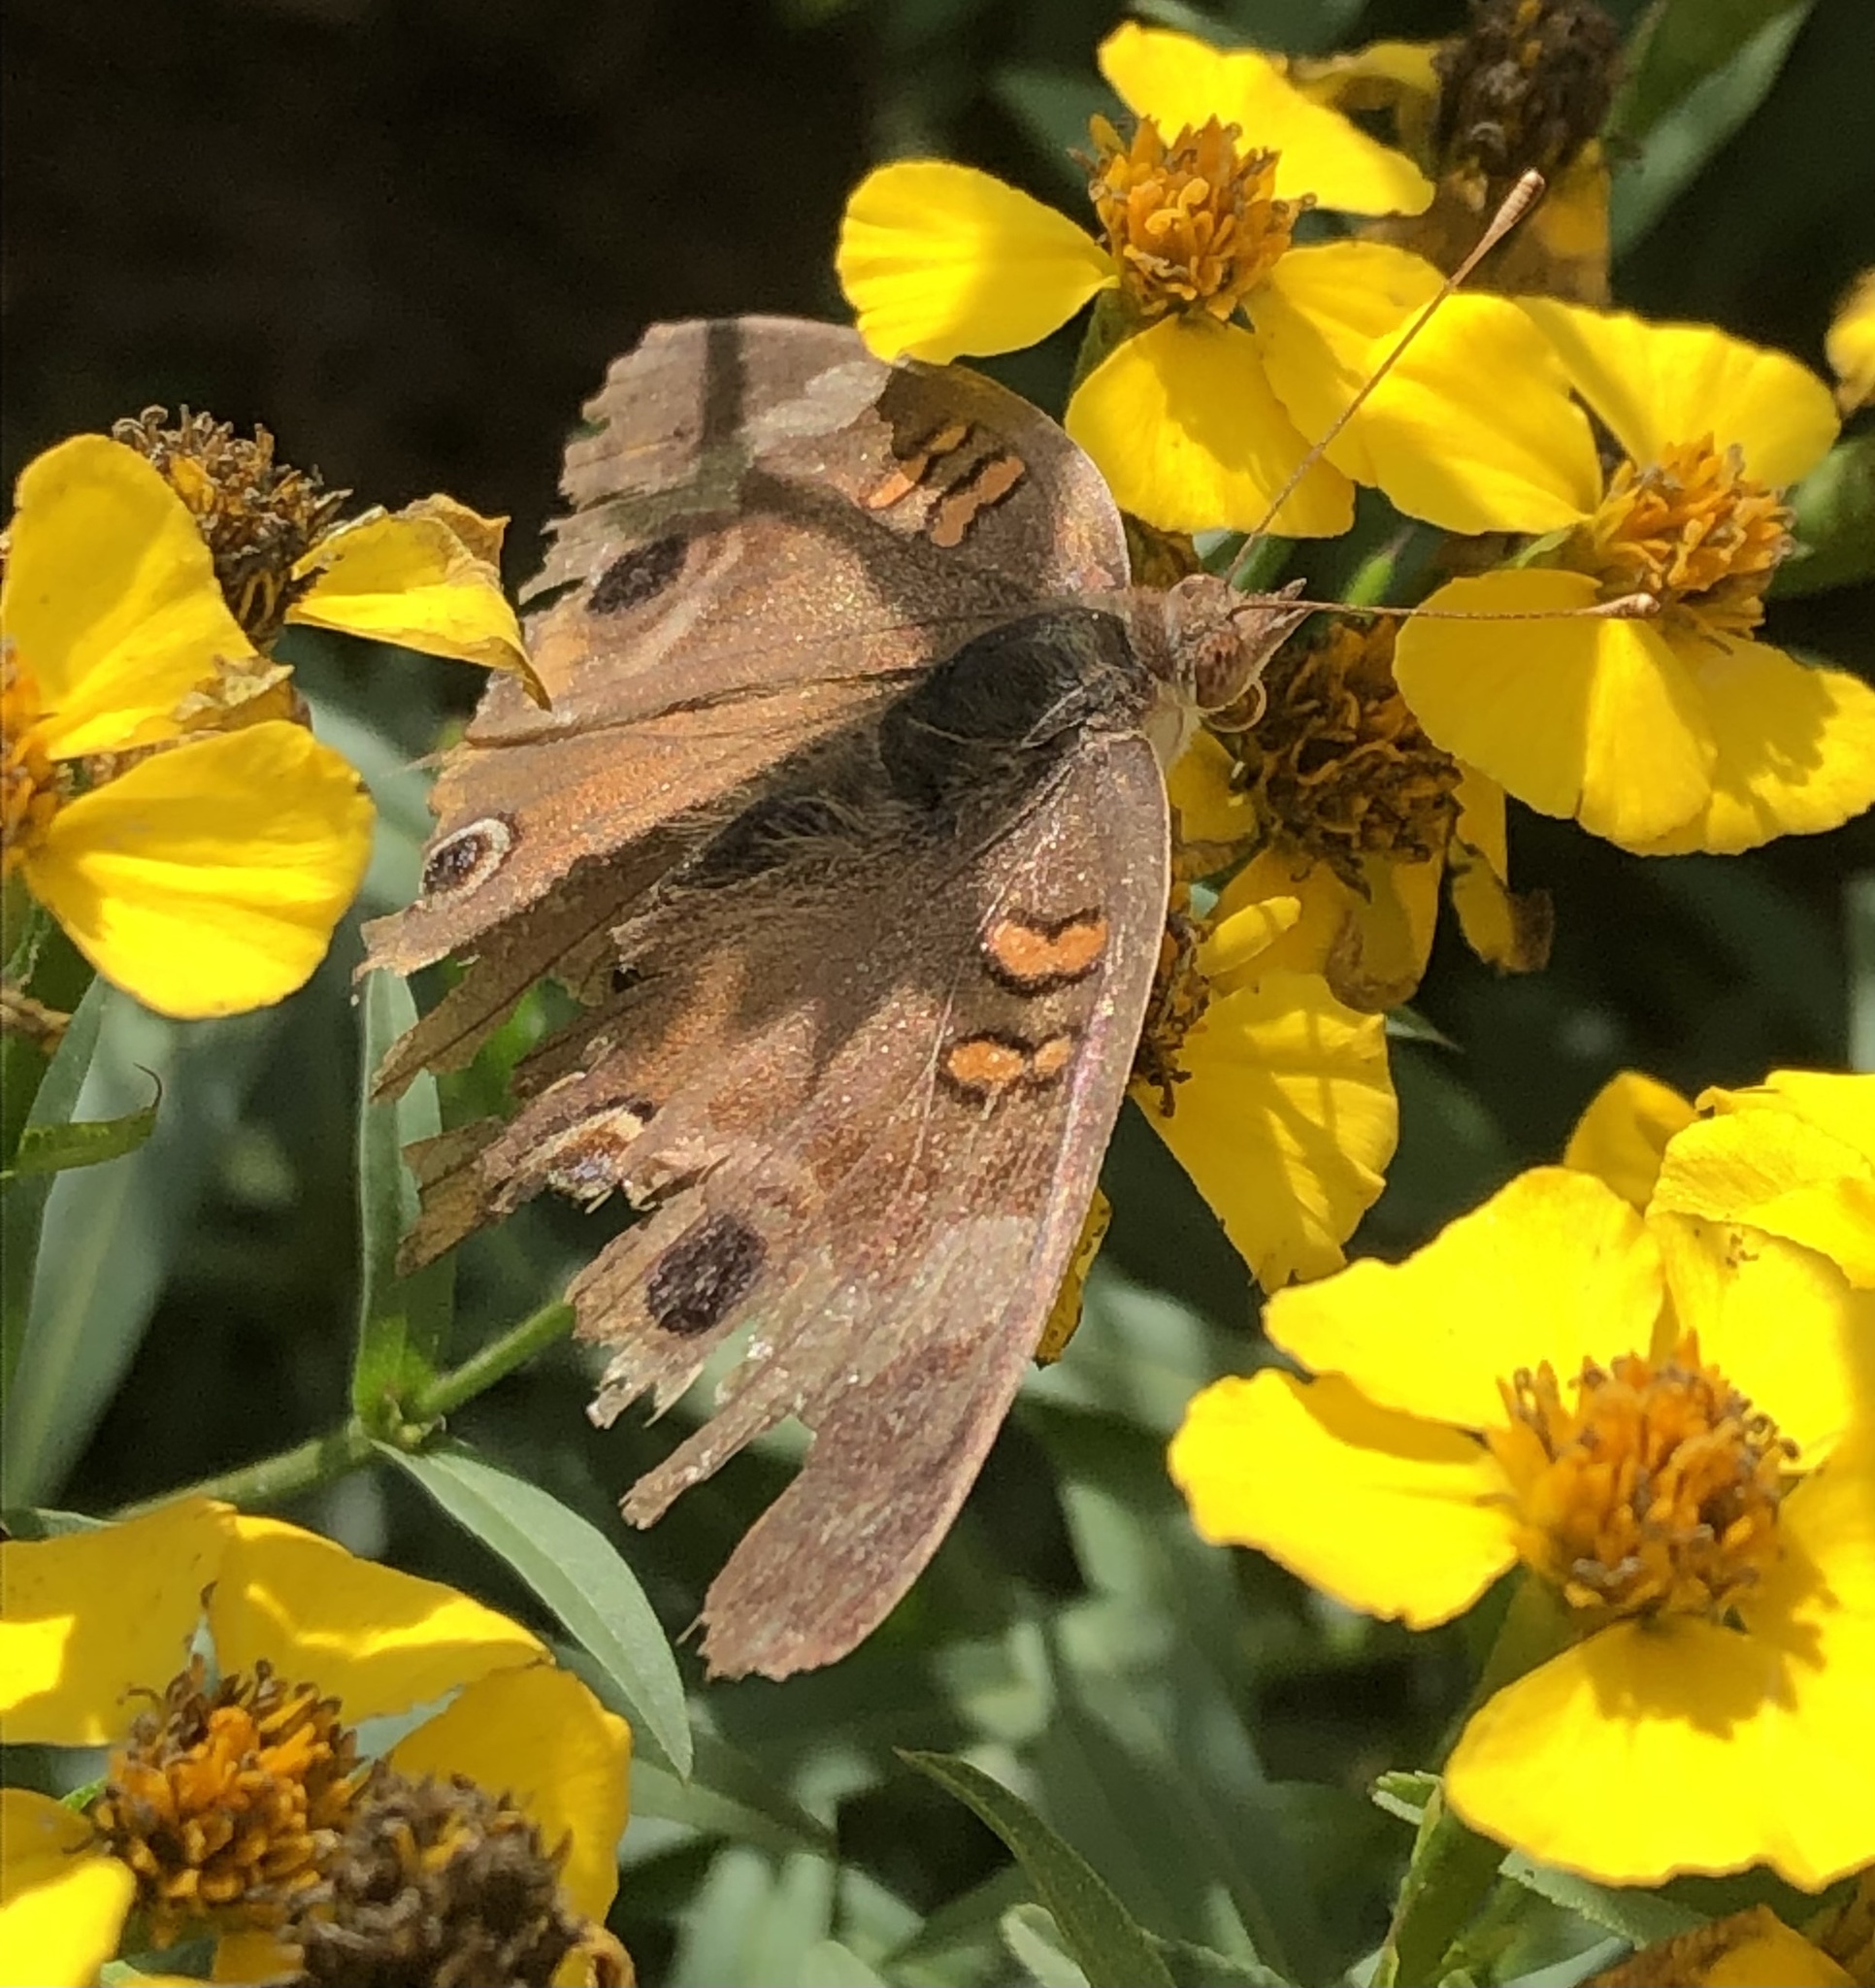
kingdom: Animalia
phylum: Arthropoda
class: Insecta
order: Lepidoptera
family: Nymphalidae
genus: Junonia
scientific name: Junonia coenia
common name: Common buckeye
